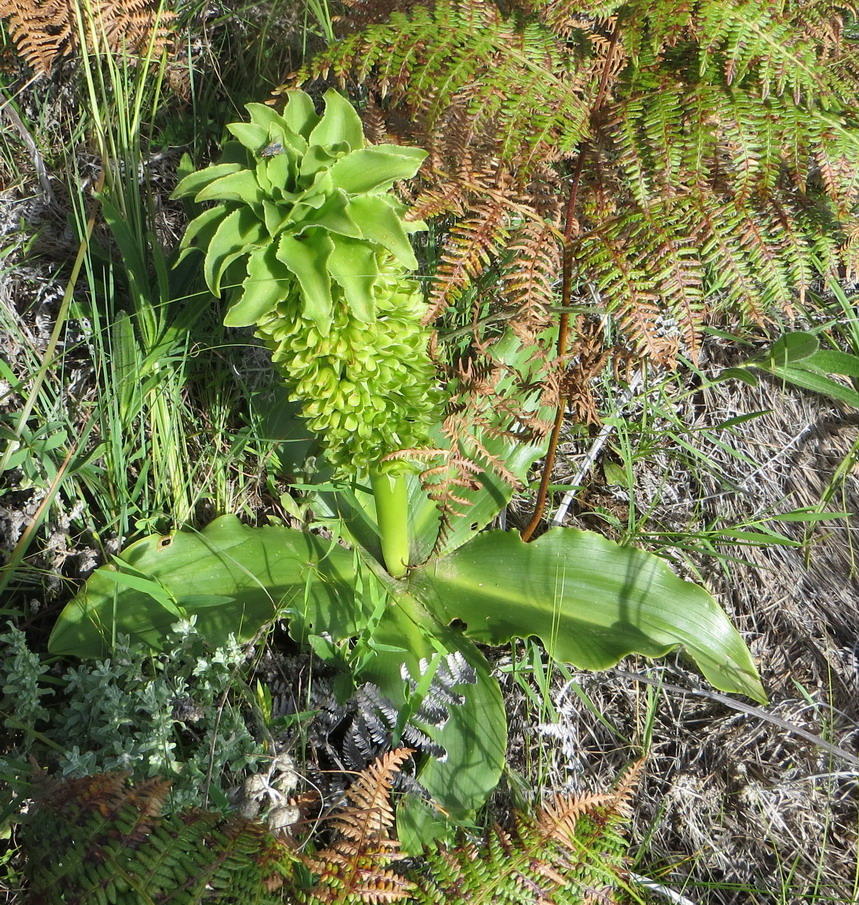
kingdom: Plantae
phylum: Tracheophyta
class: Liliopsida
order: Asparagales
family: Asparagaceae
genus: Eucomis
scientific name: Eucomis autumnalis
